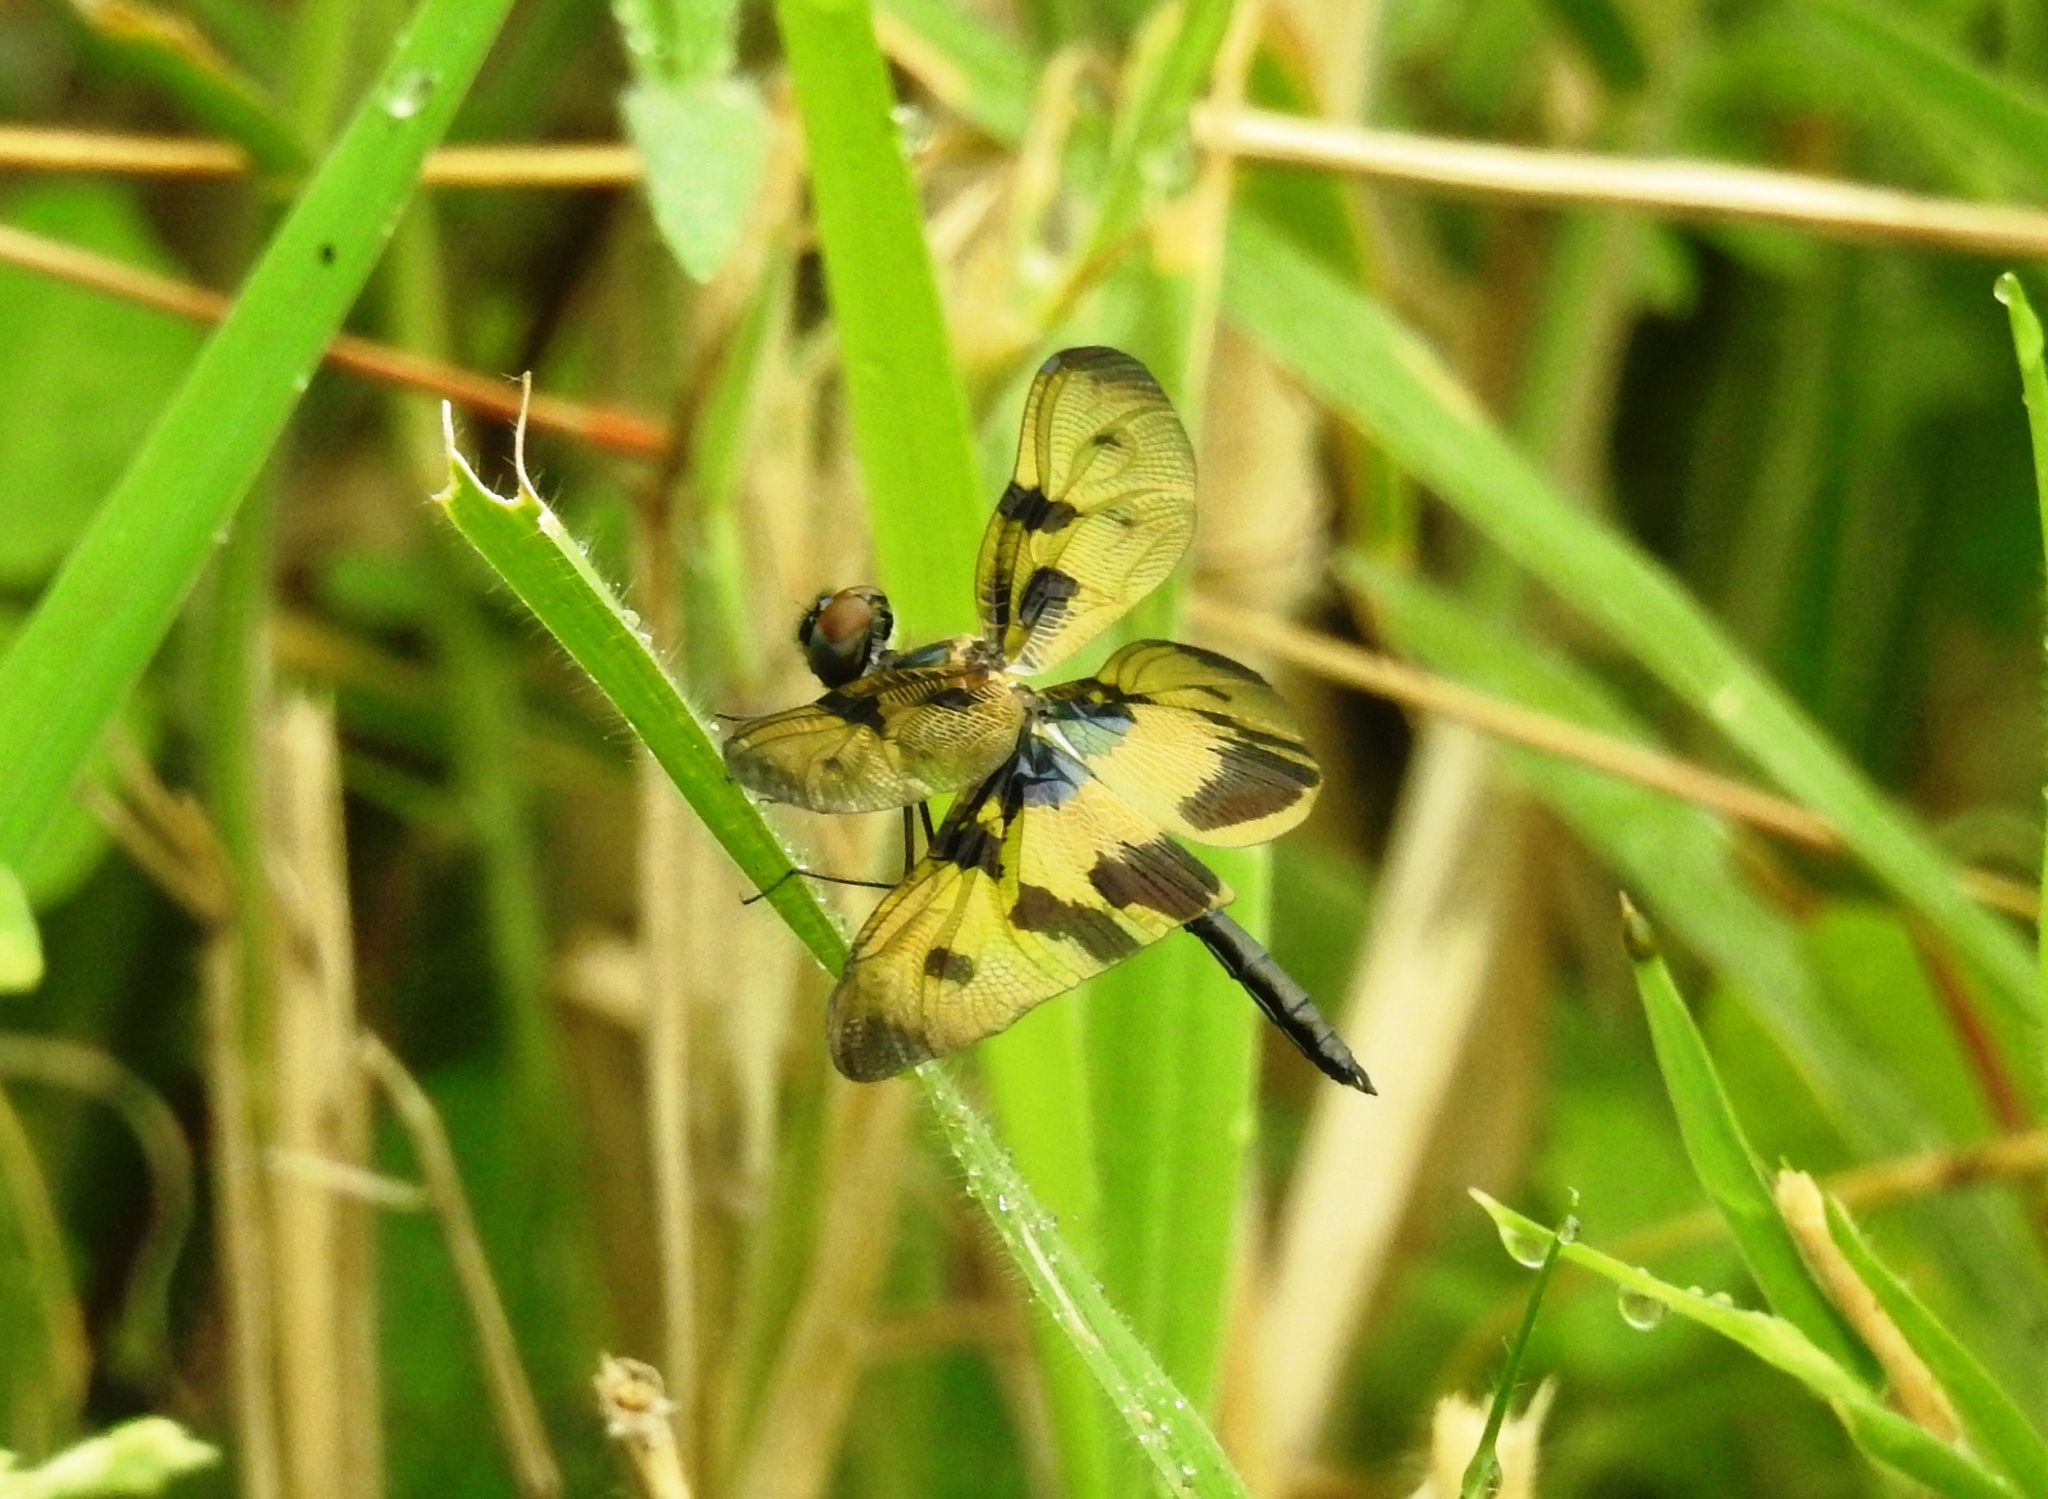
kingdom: Animalia
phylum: Arthropoda
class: Insecta
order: Odonata
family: Libellulidae
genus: Rhyothemis
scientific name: Rhyothemis variegata
